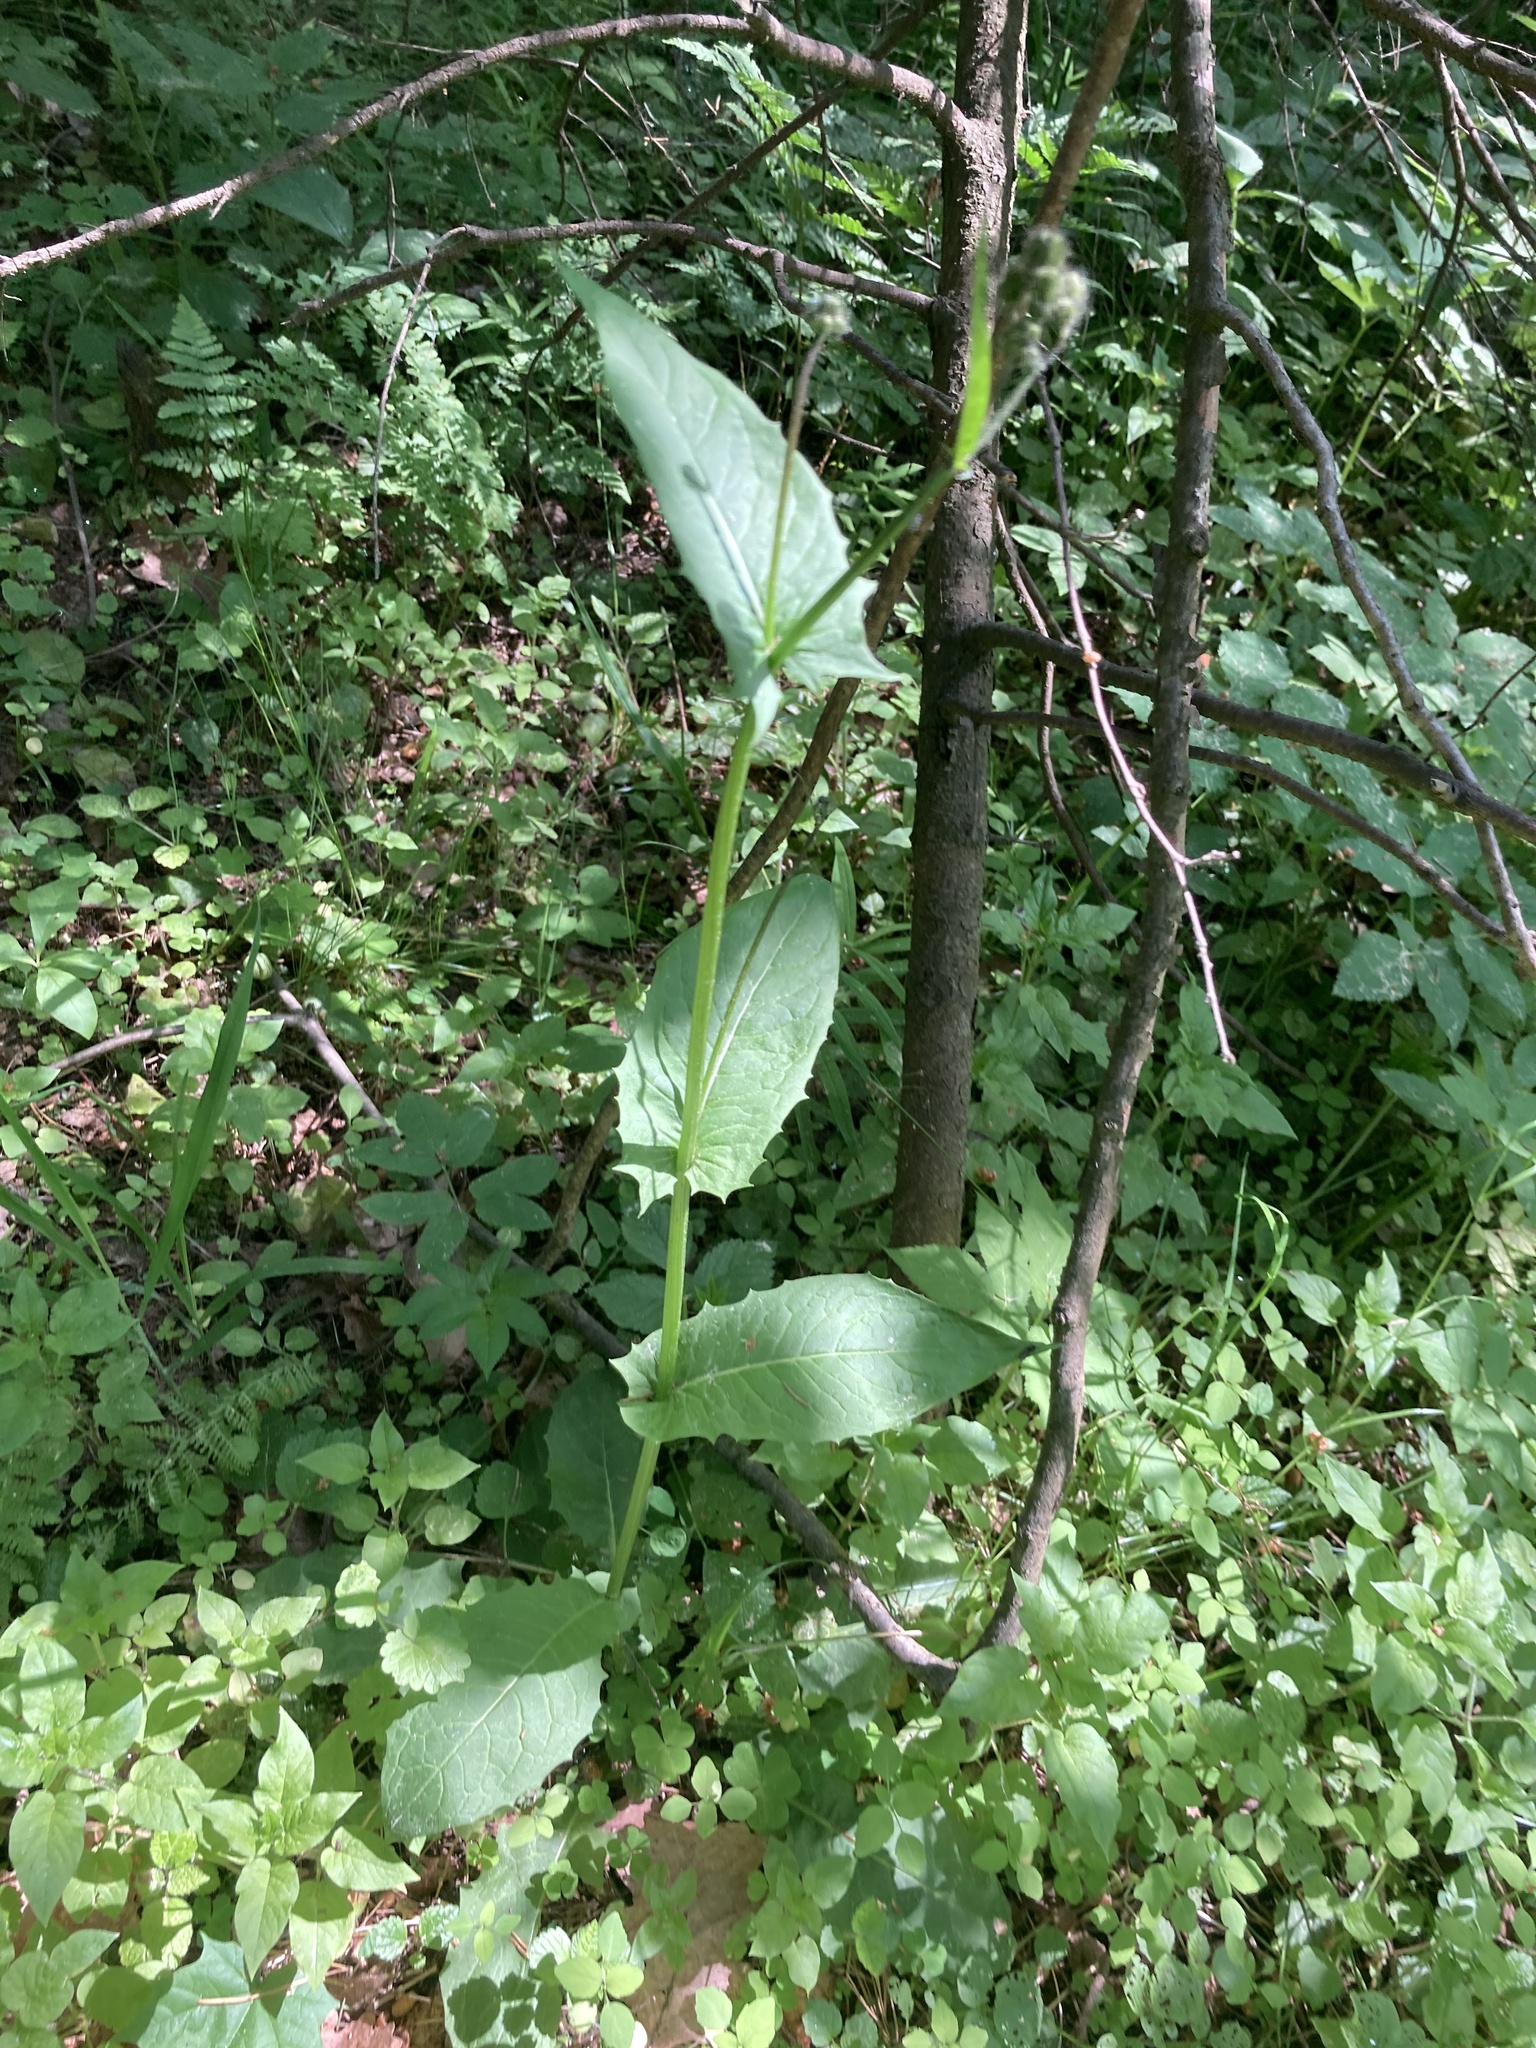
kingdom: Plantae
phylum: Tracheophyta
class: Magnoliopsida
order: Asterales
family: Asteraceae
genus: Crepis
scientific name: Crepis paludosa
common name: Marsh hawk's-beard
